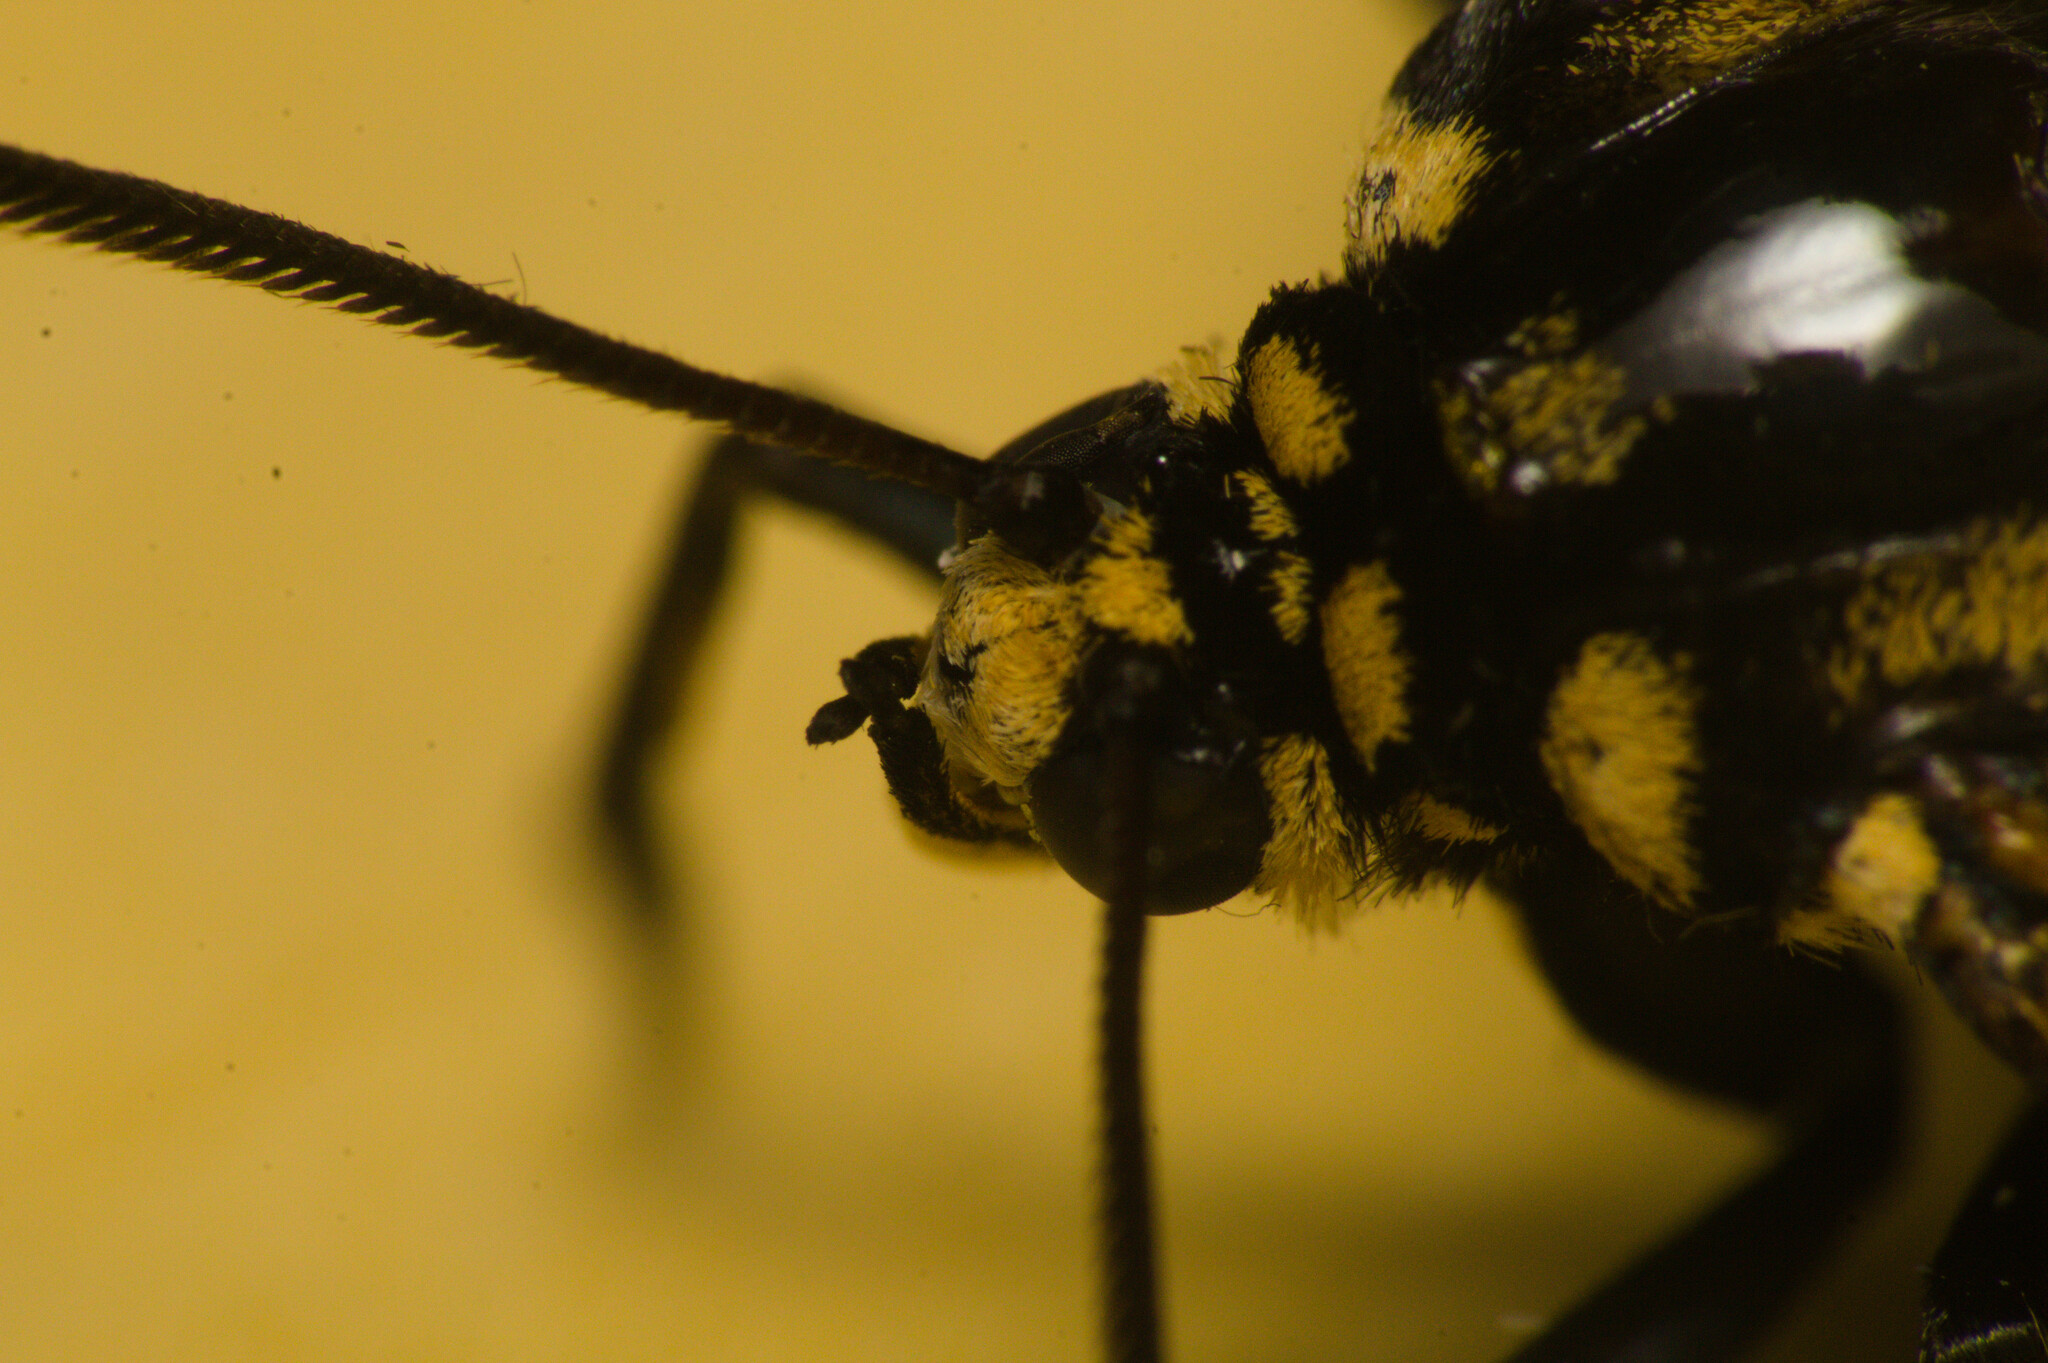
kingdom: Animalia
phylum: Arthropoda
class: Insecta
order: Lepidoptera
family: Erebidae
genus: Isanthrene
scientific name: Isanthrene melas
